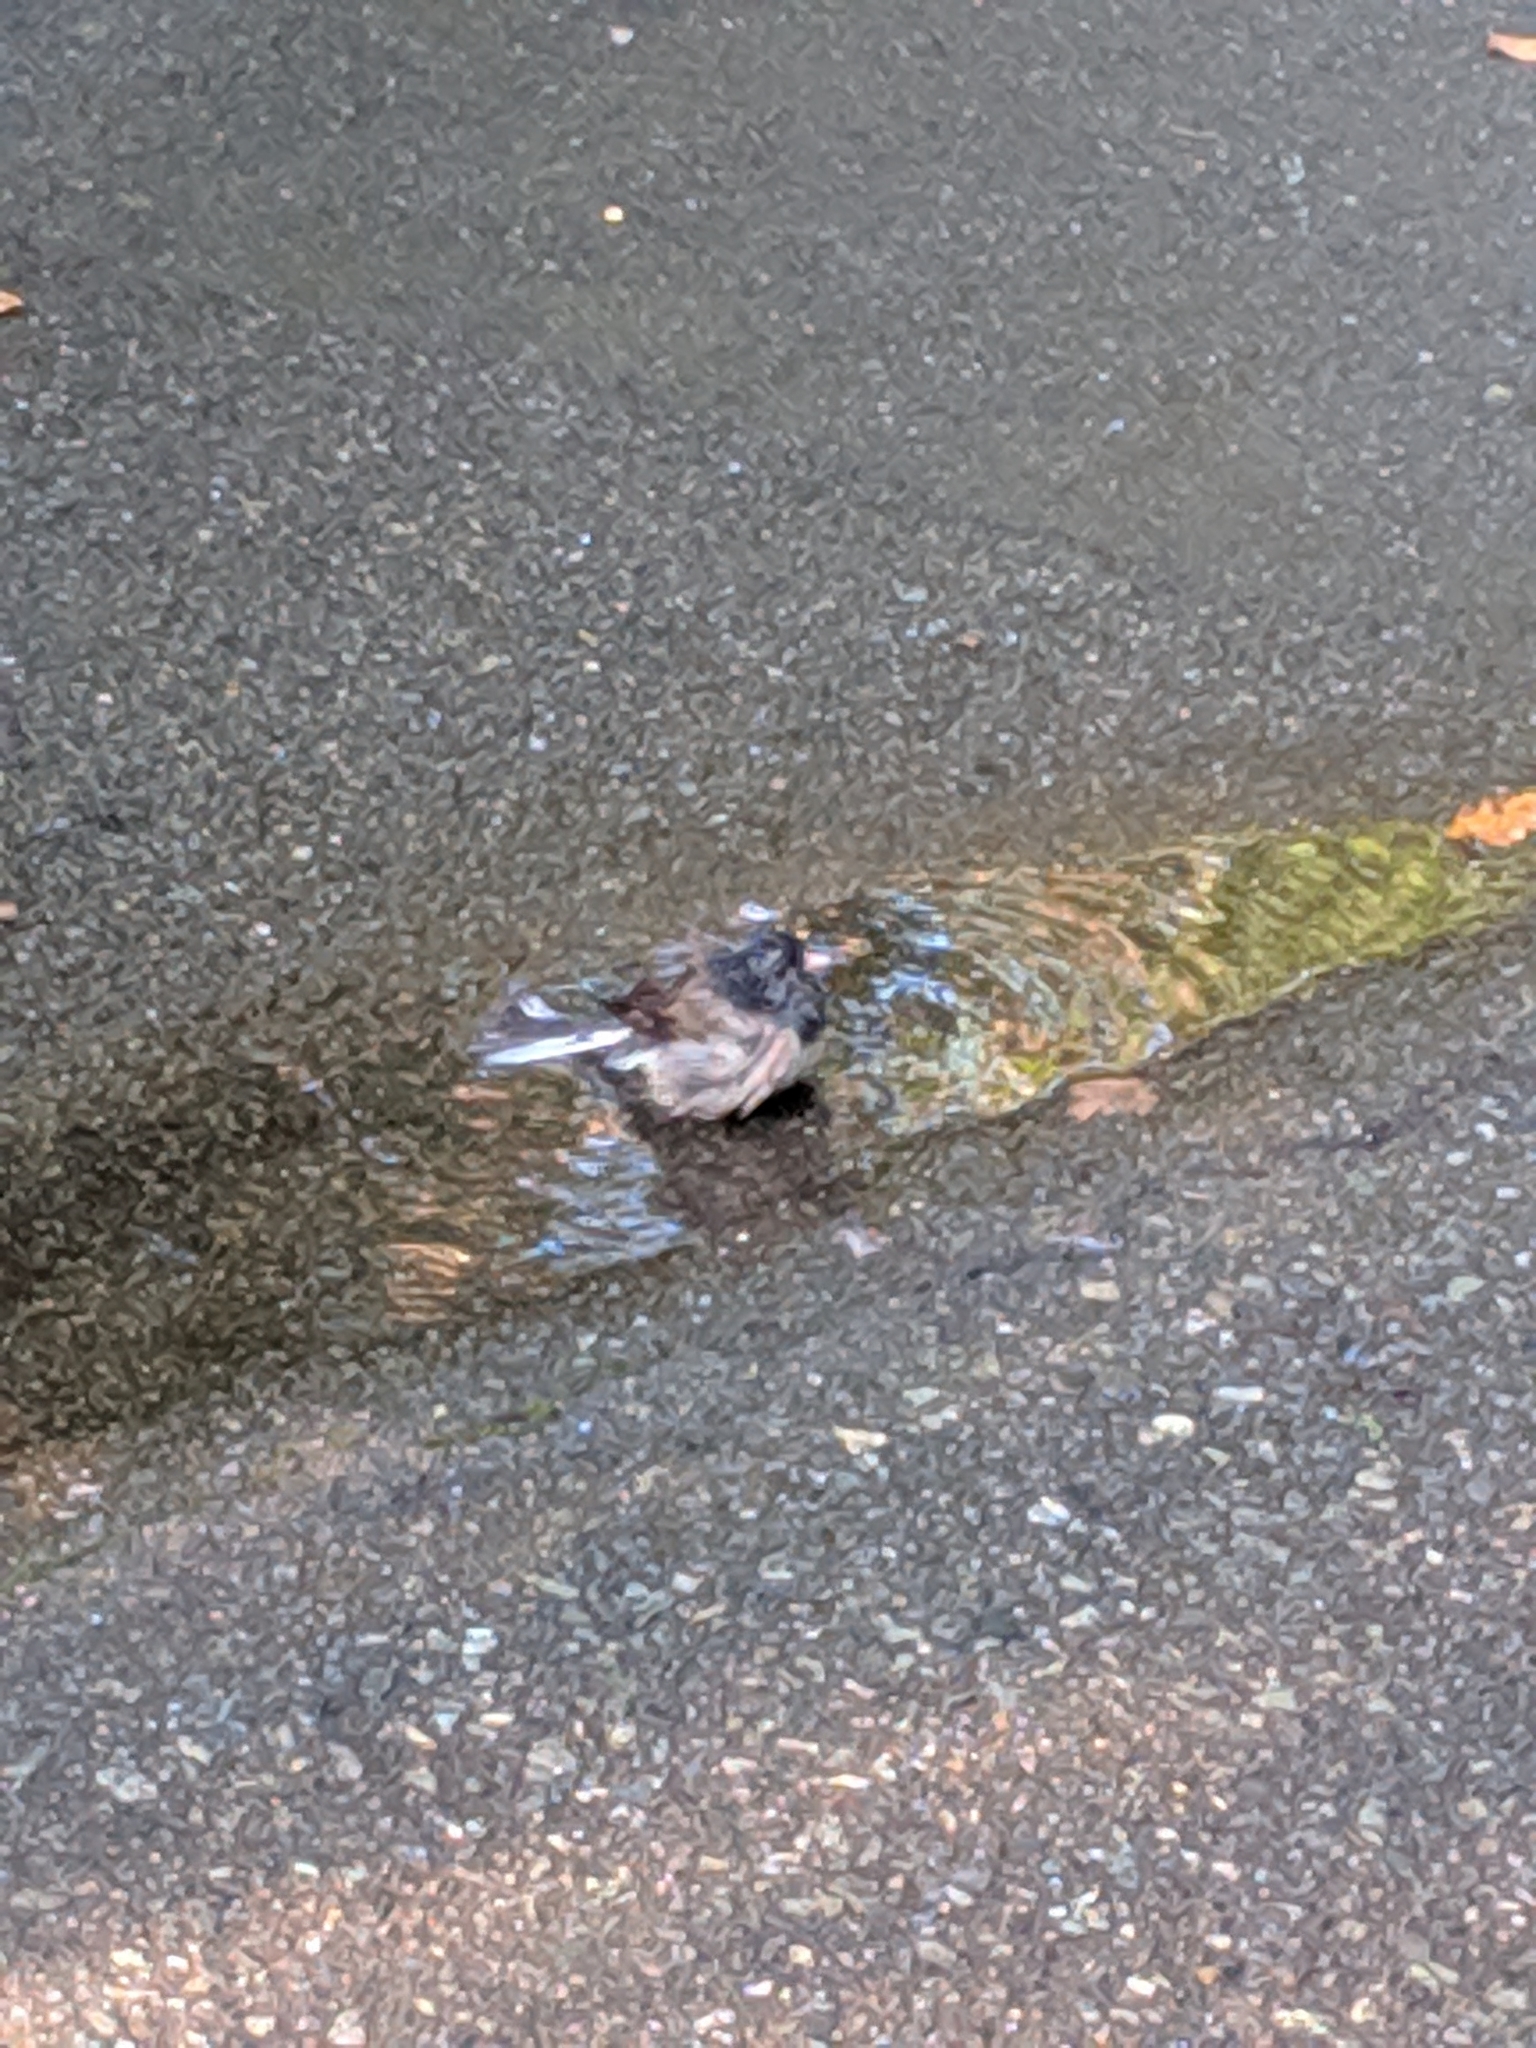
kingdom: Animalia
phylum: Chordata
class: Aves
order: Passeriformes
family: Passerellidae
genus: Junco
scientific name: Junco hyemalis
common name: Dark-eyed junco
